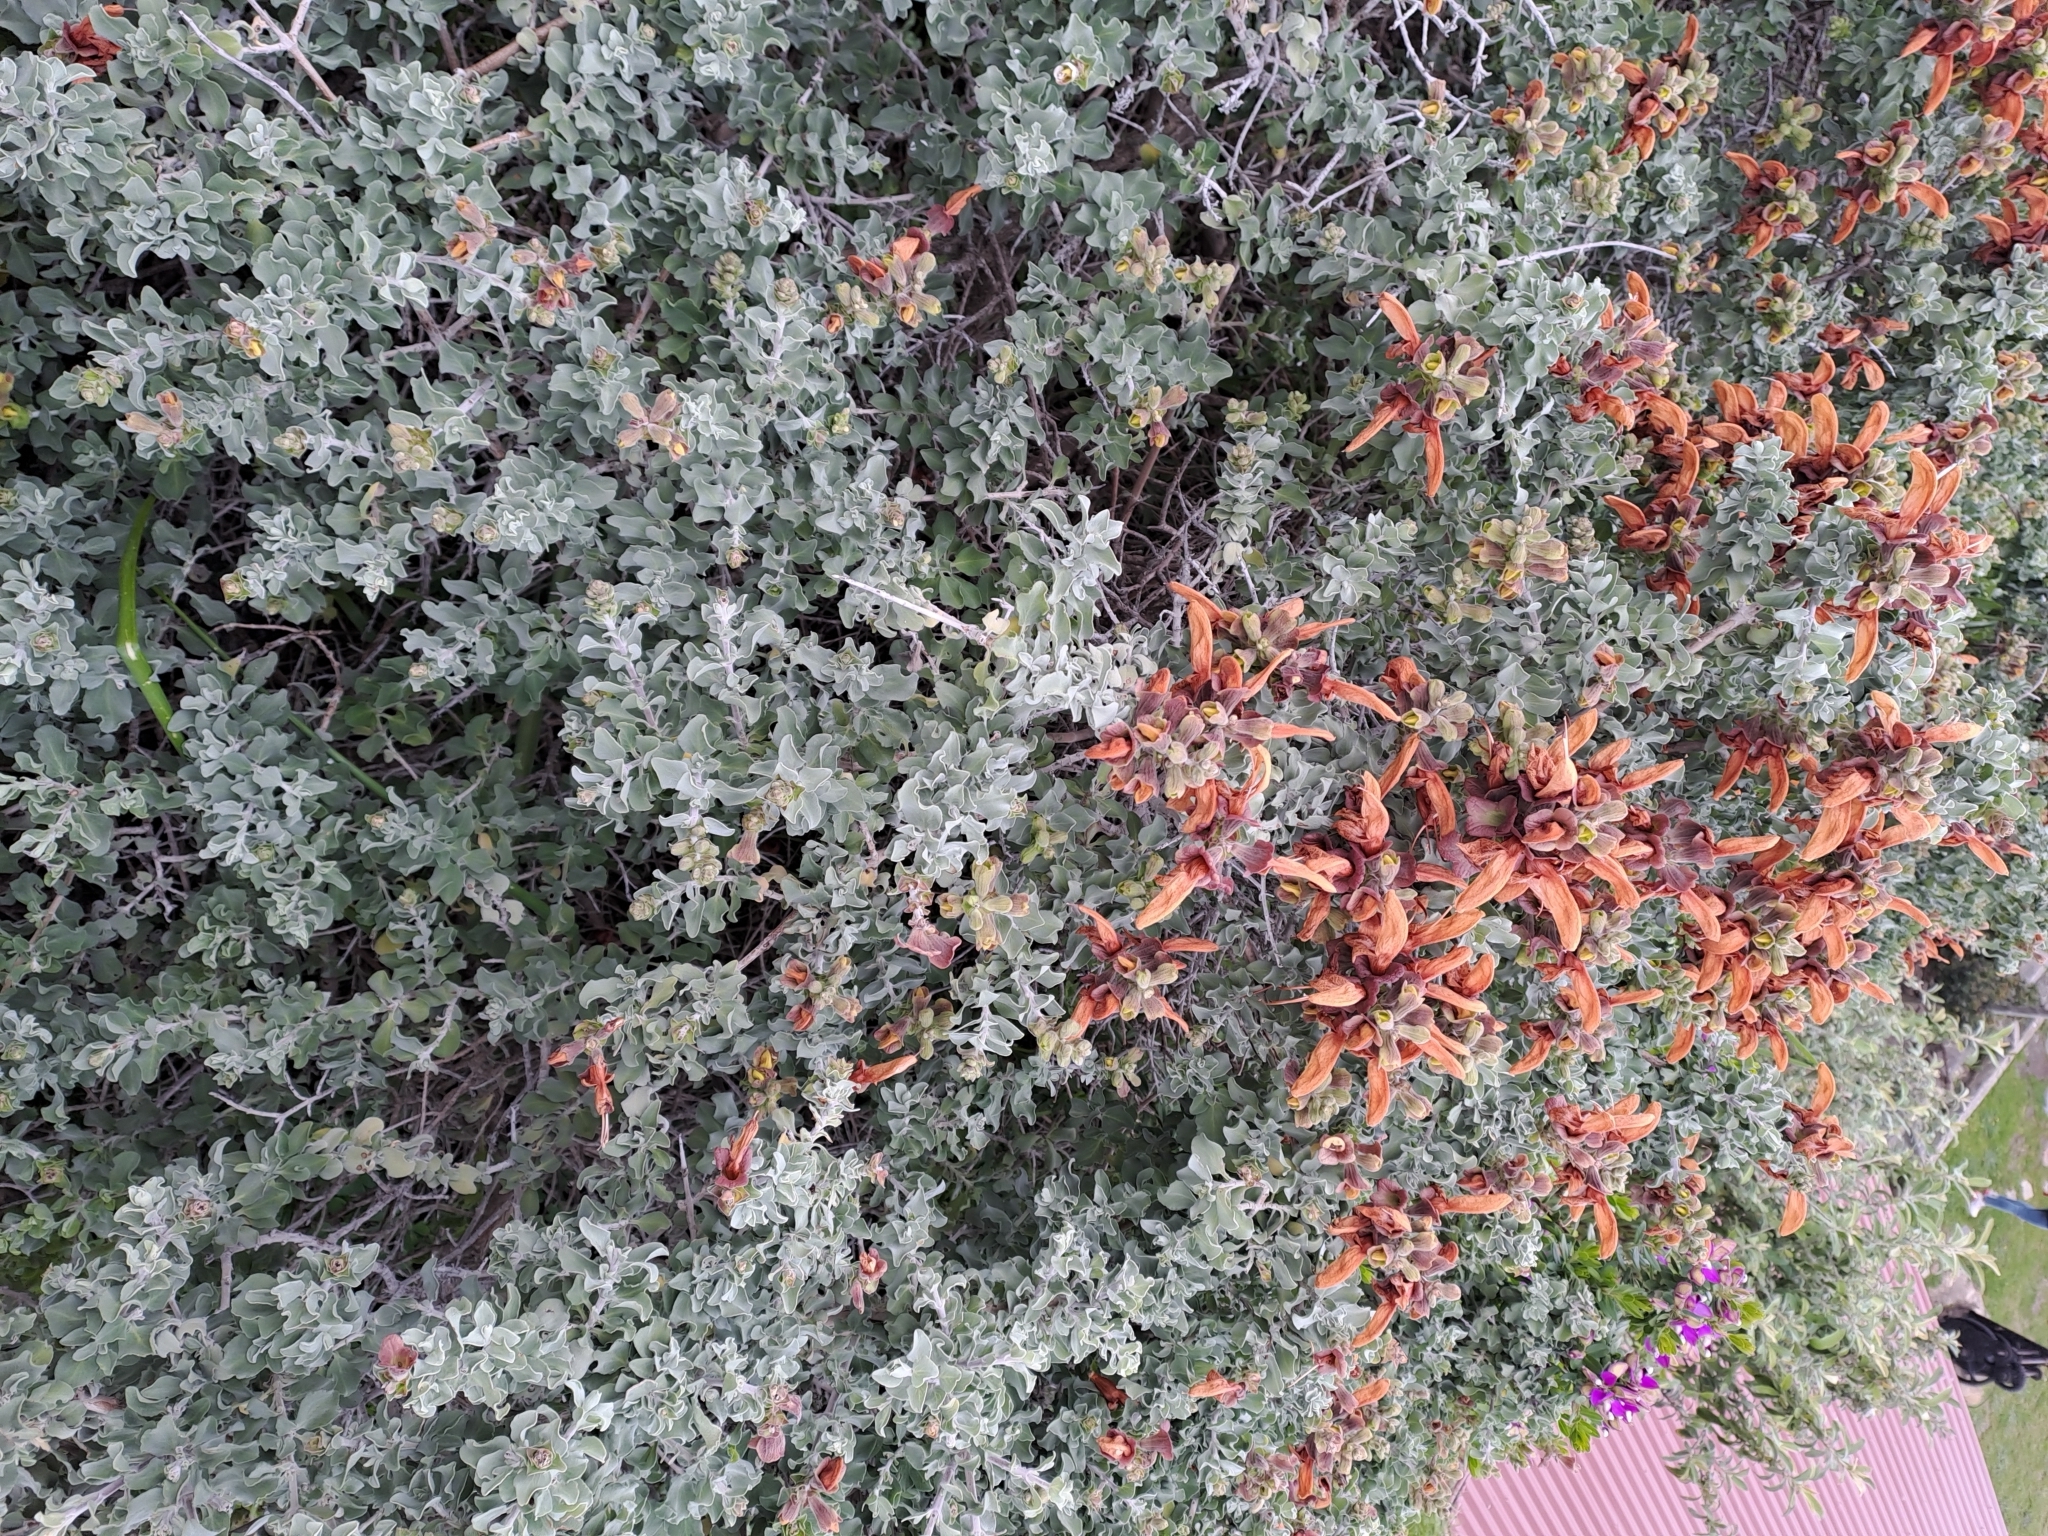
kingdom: Plantae
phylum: Tracheophyta
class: Magnoliopsida
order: Lamiales
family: Lamiaceae
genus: Salvia
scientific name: Salvia aurea
